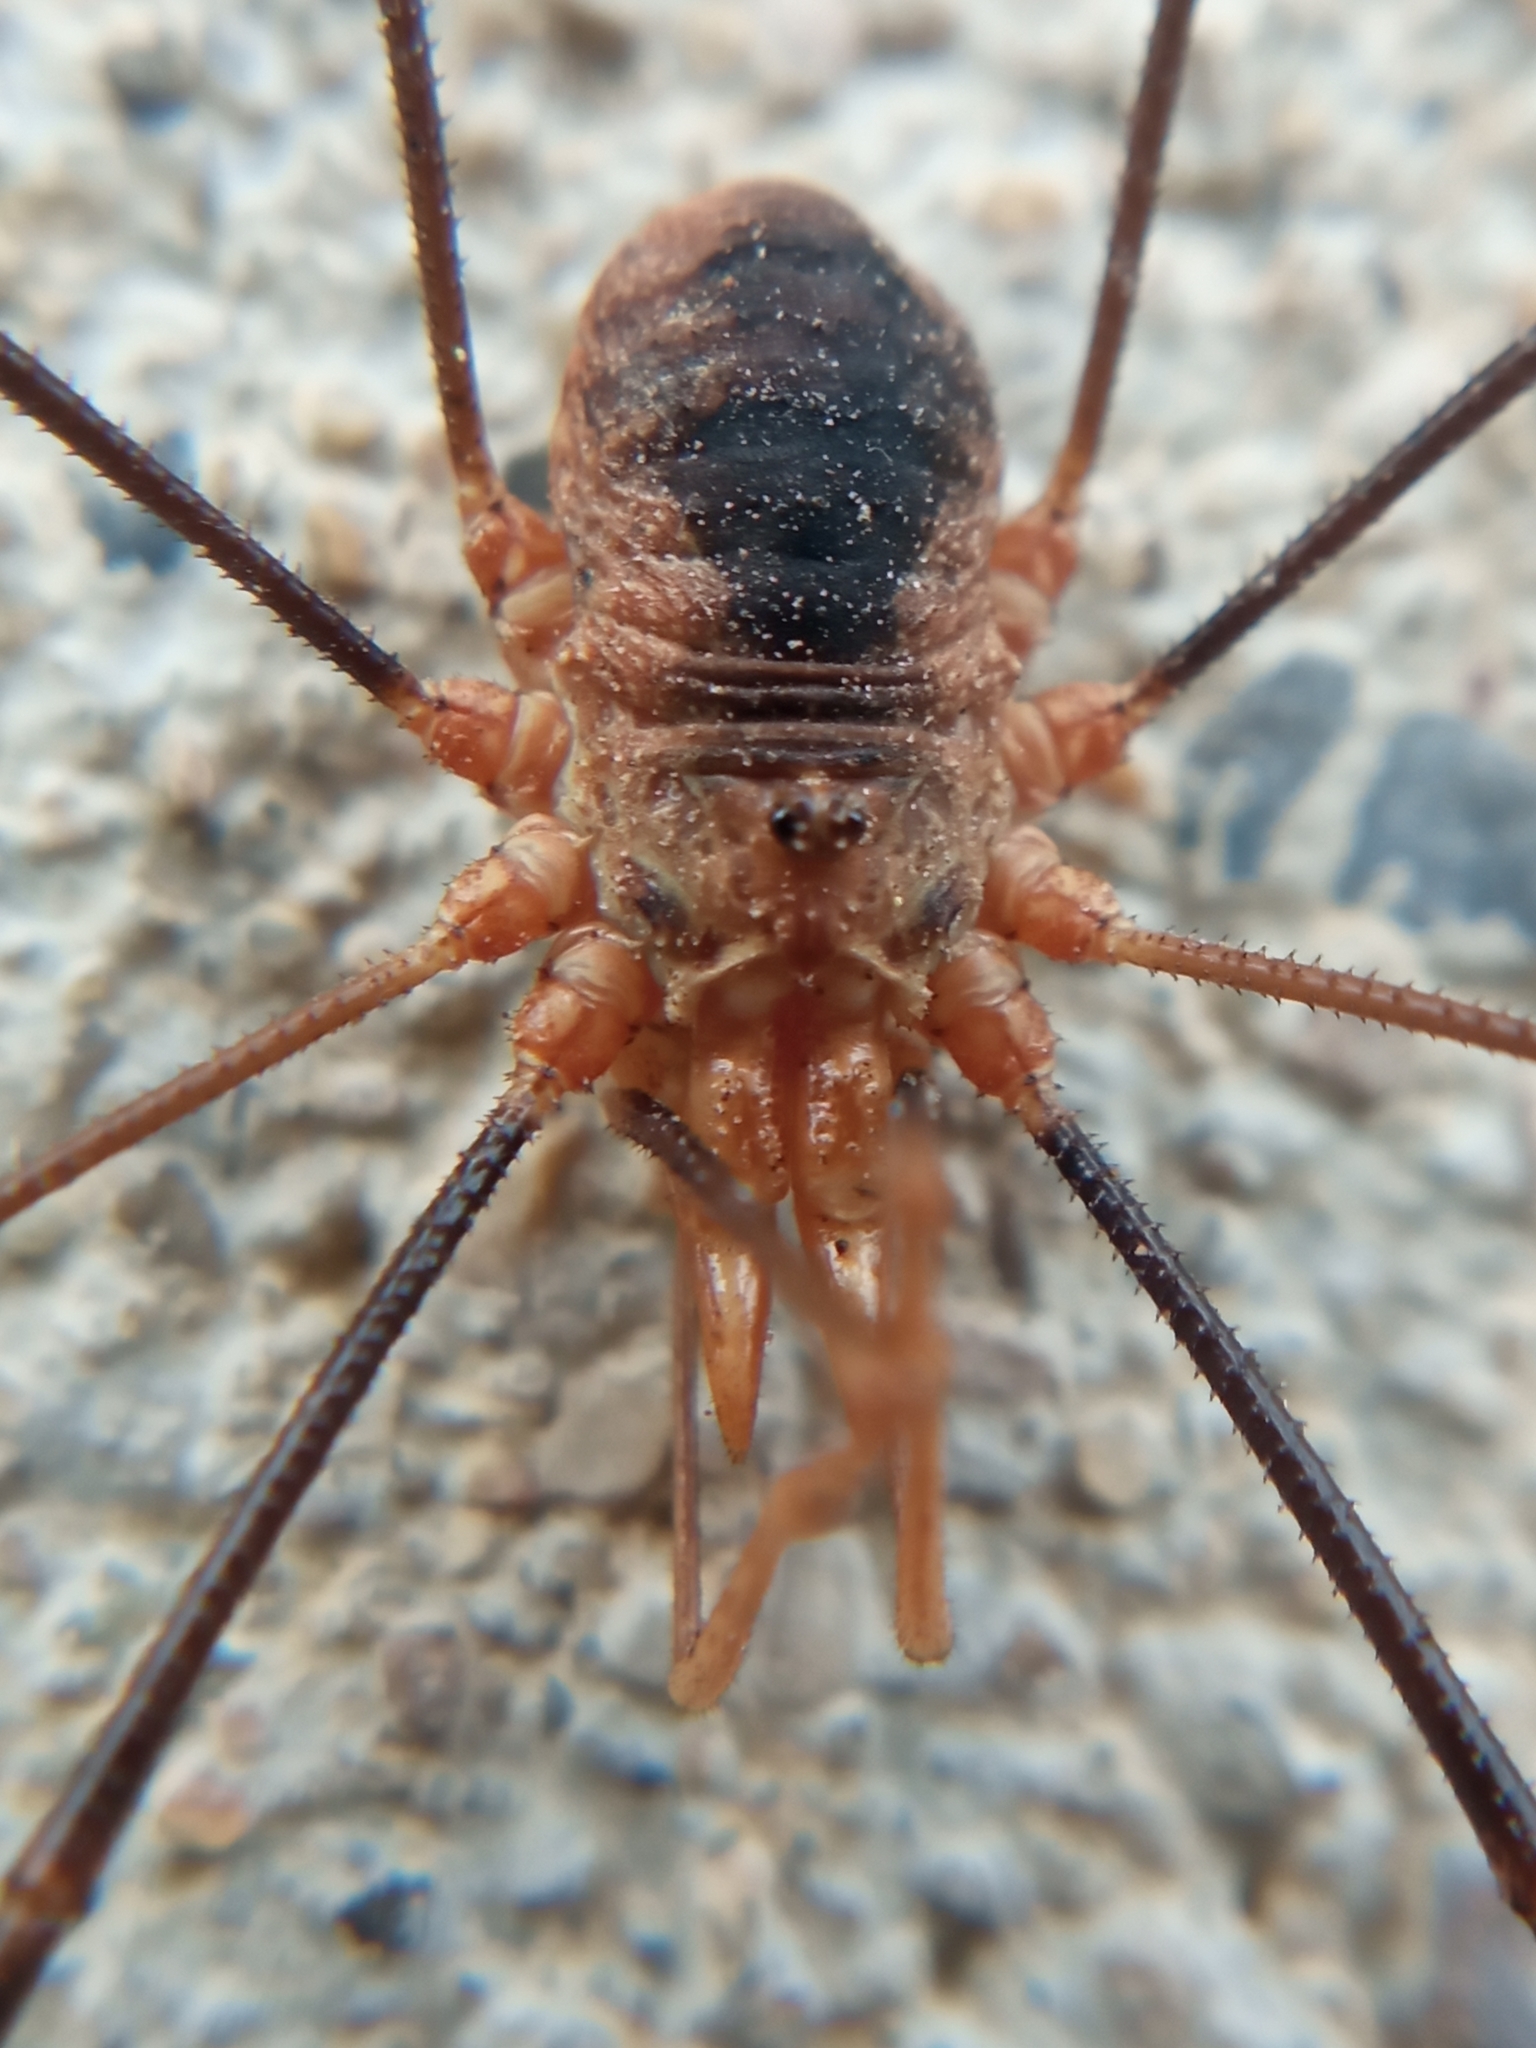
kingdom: Animalia
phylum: Arthropoda
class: Arachnida
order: Opiliones
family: Phalangiidae
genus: Phalangium
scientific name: Phalangium opilio
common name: Daddy longleg
